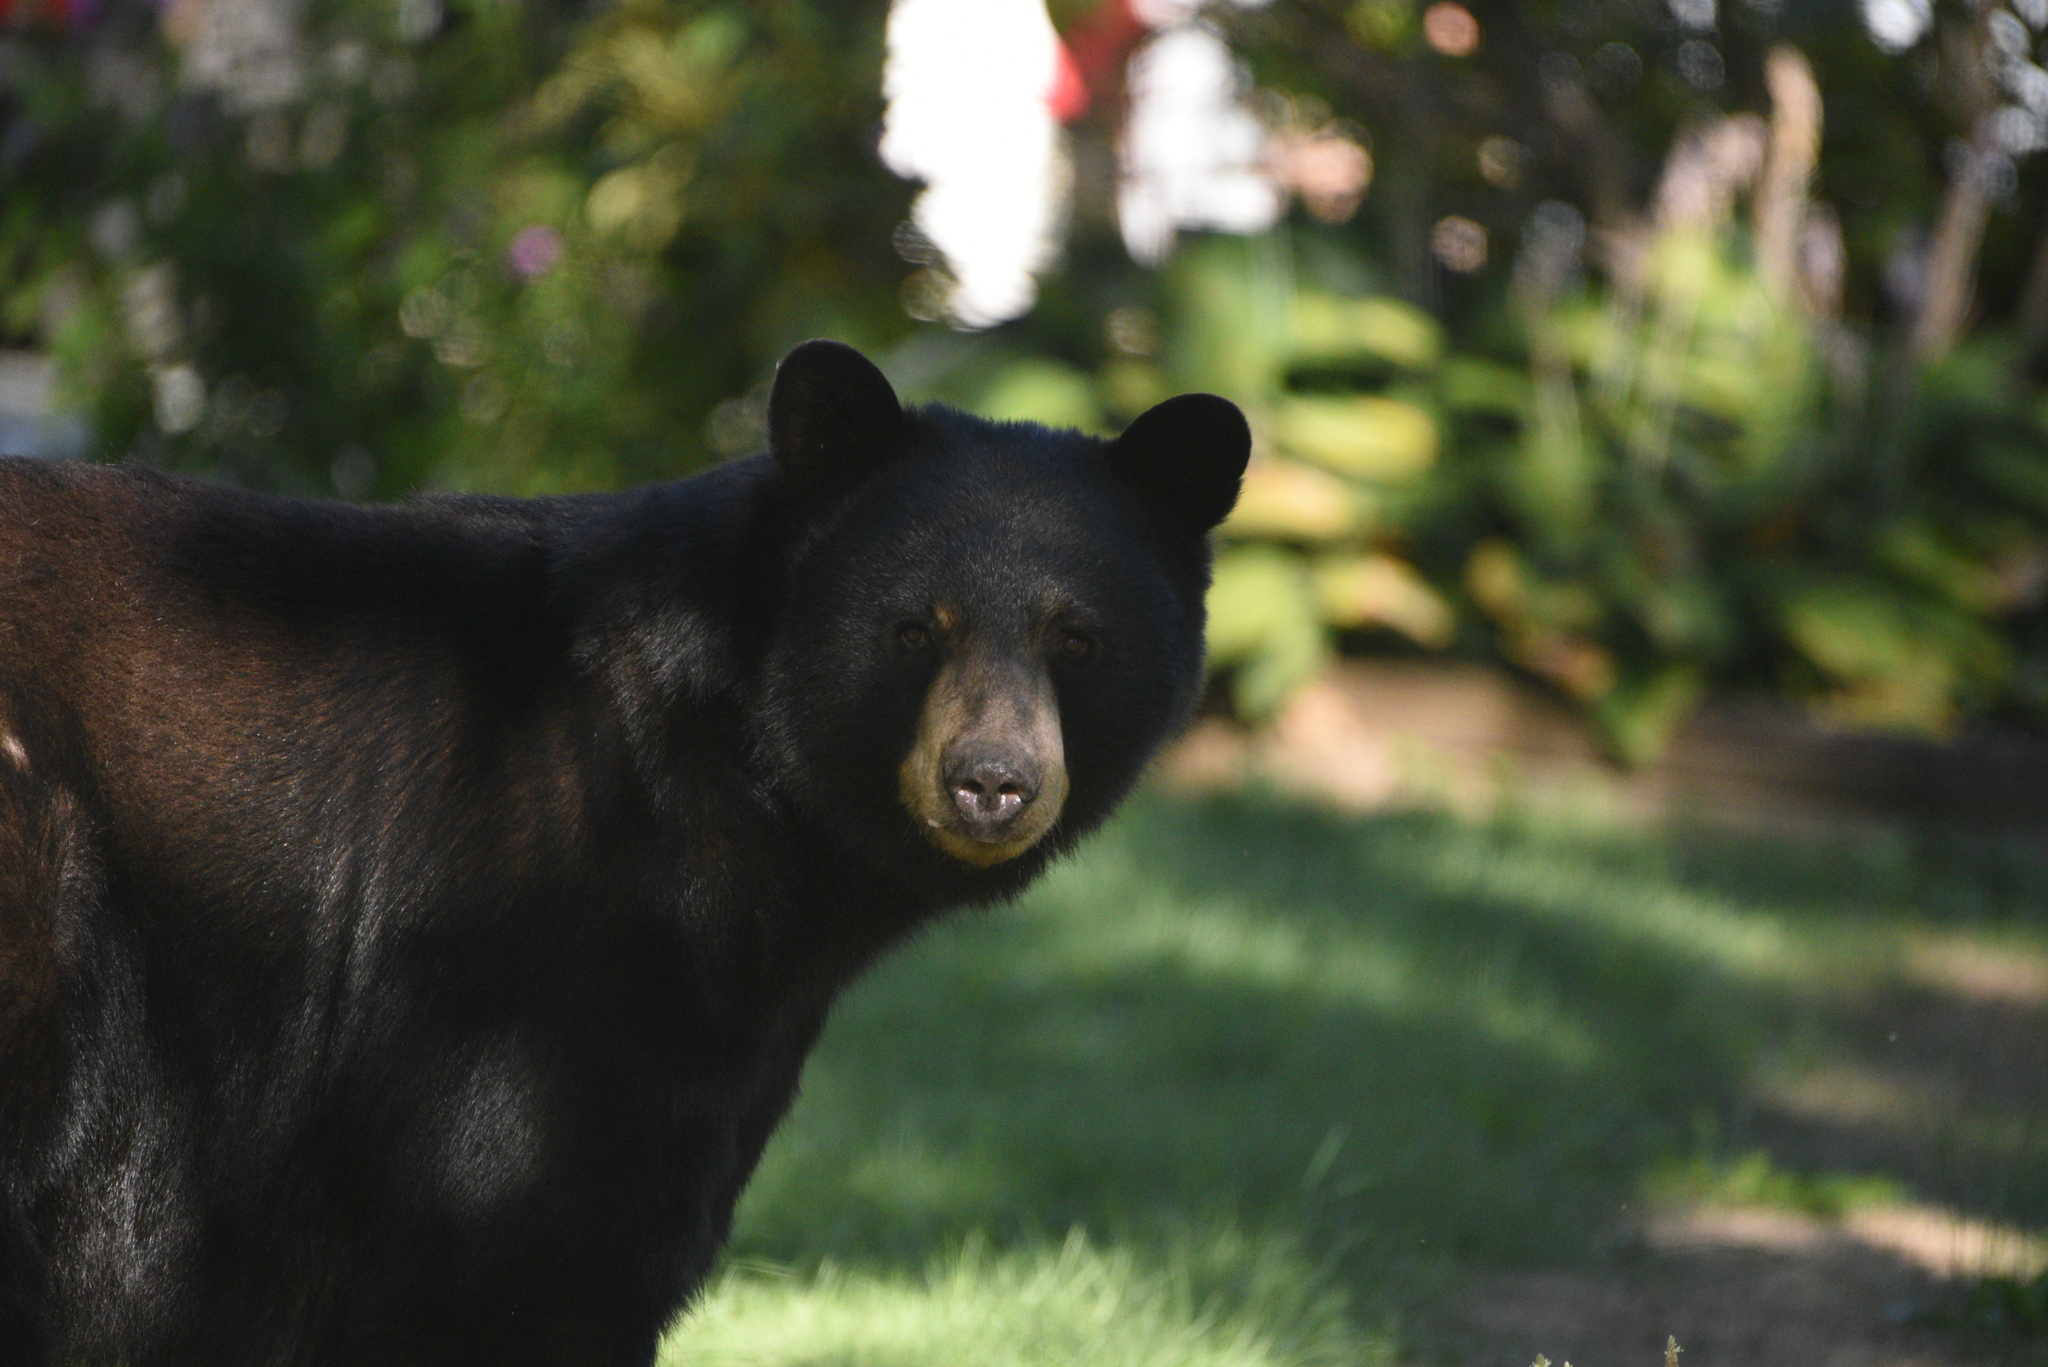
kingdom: Animalia
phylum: Chordata
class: Mammalia
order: Carnivora
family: Ursidae
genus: Ursus
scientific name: Ursus americanus
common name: American black bear
